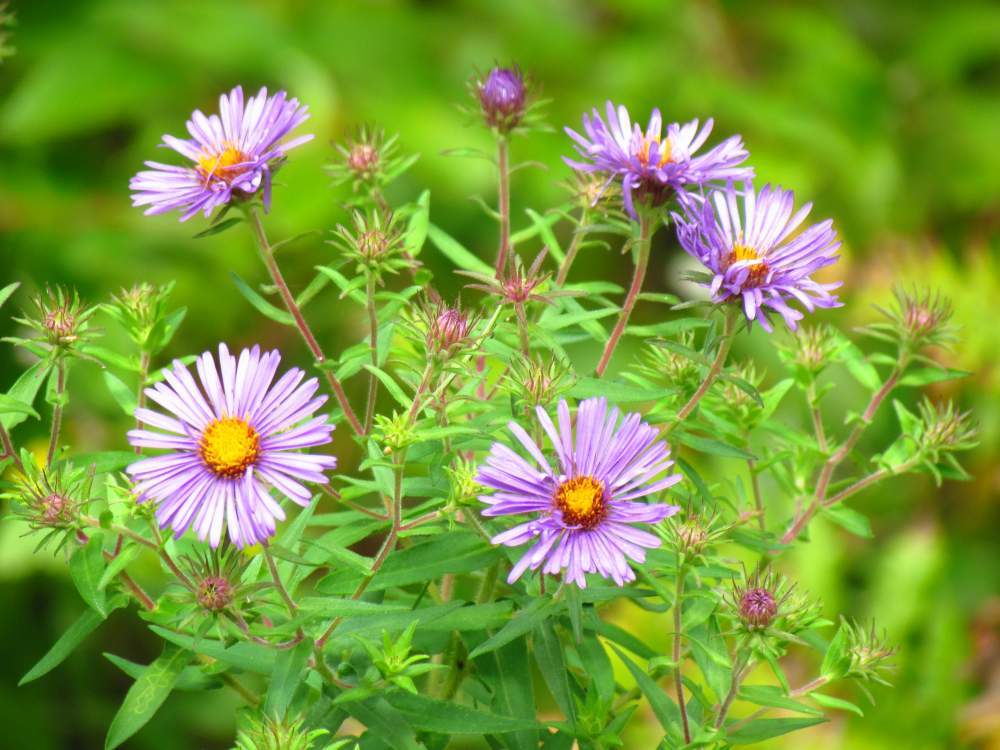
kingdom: Plantae
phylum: Tracheophyta
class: Magnoliopsida
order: Asterales
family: Asteraceae
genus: Symphyotrichum
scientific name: Symphyotrichum novae-angliae
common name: Michaelmas daisy
